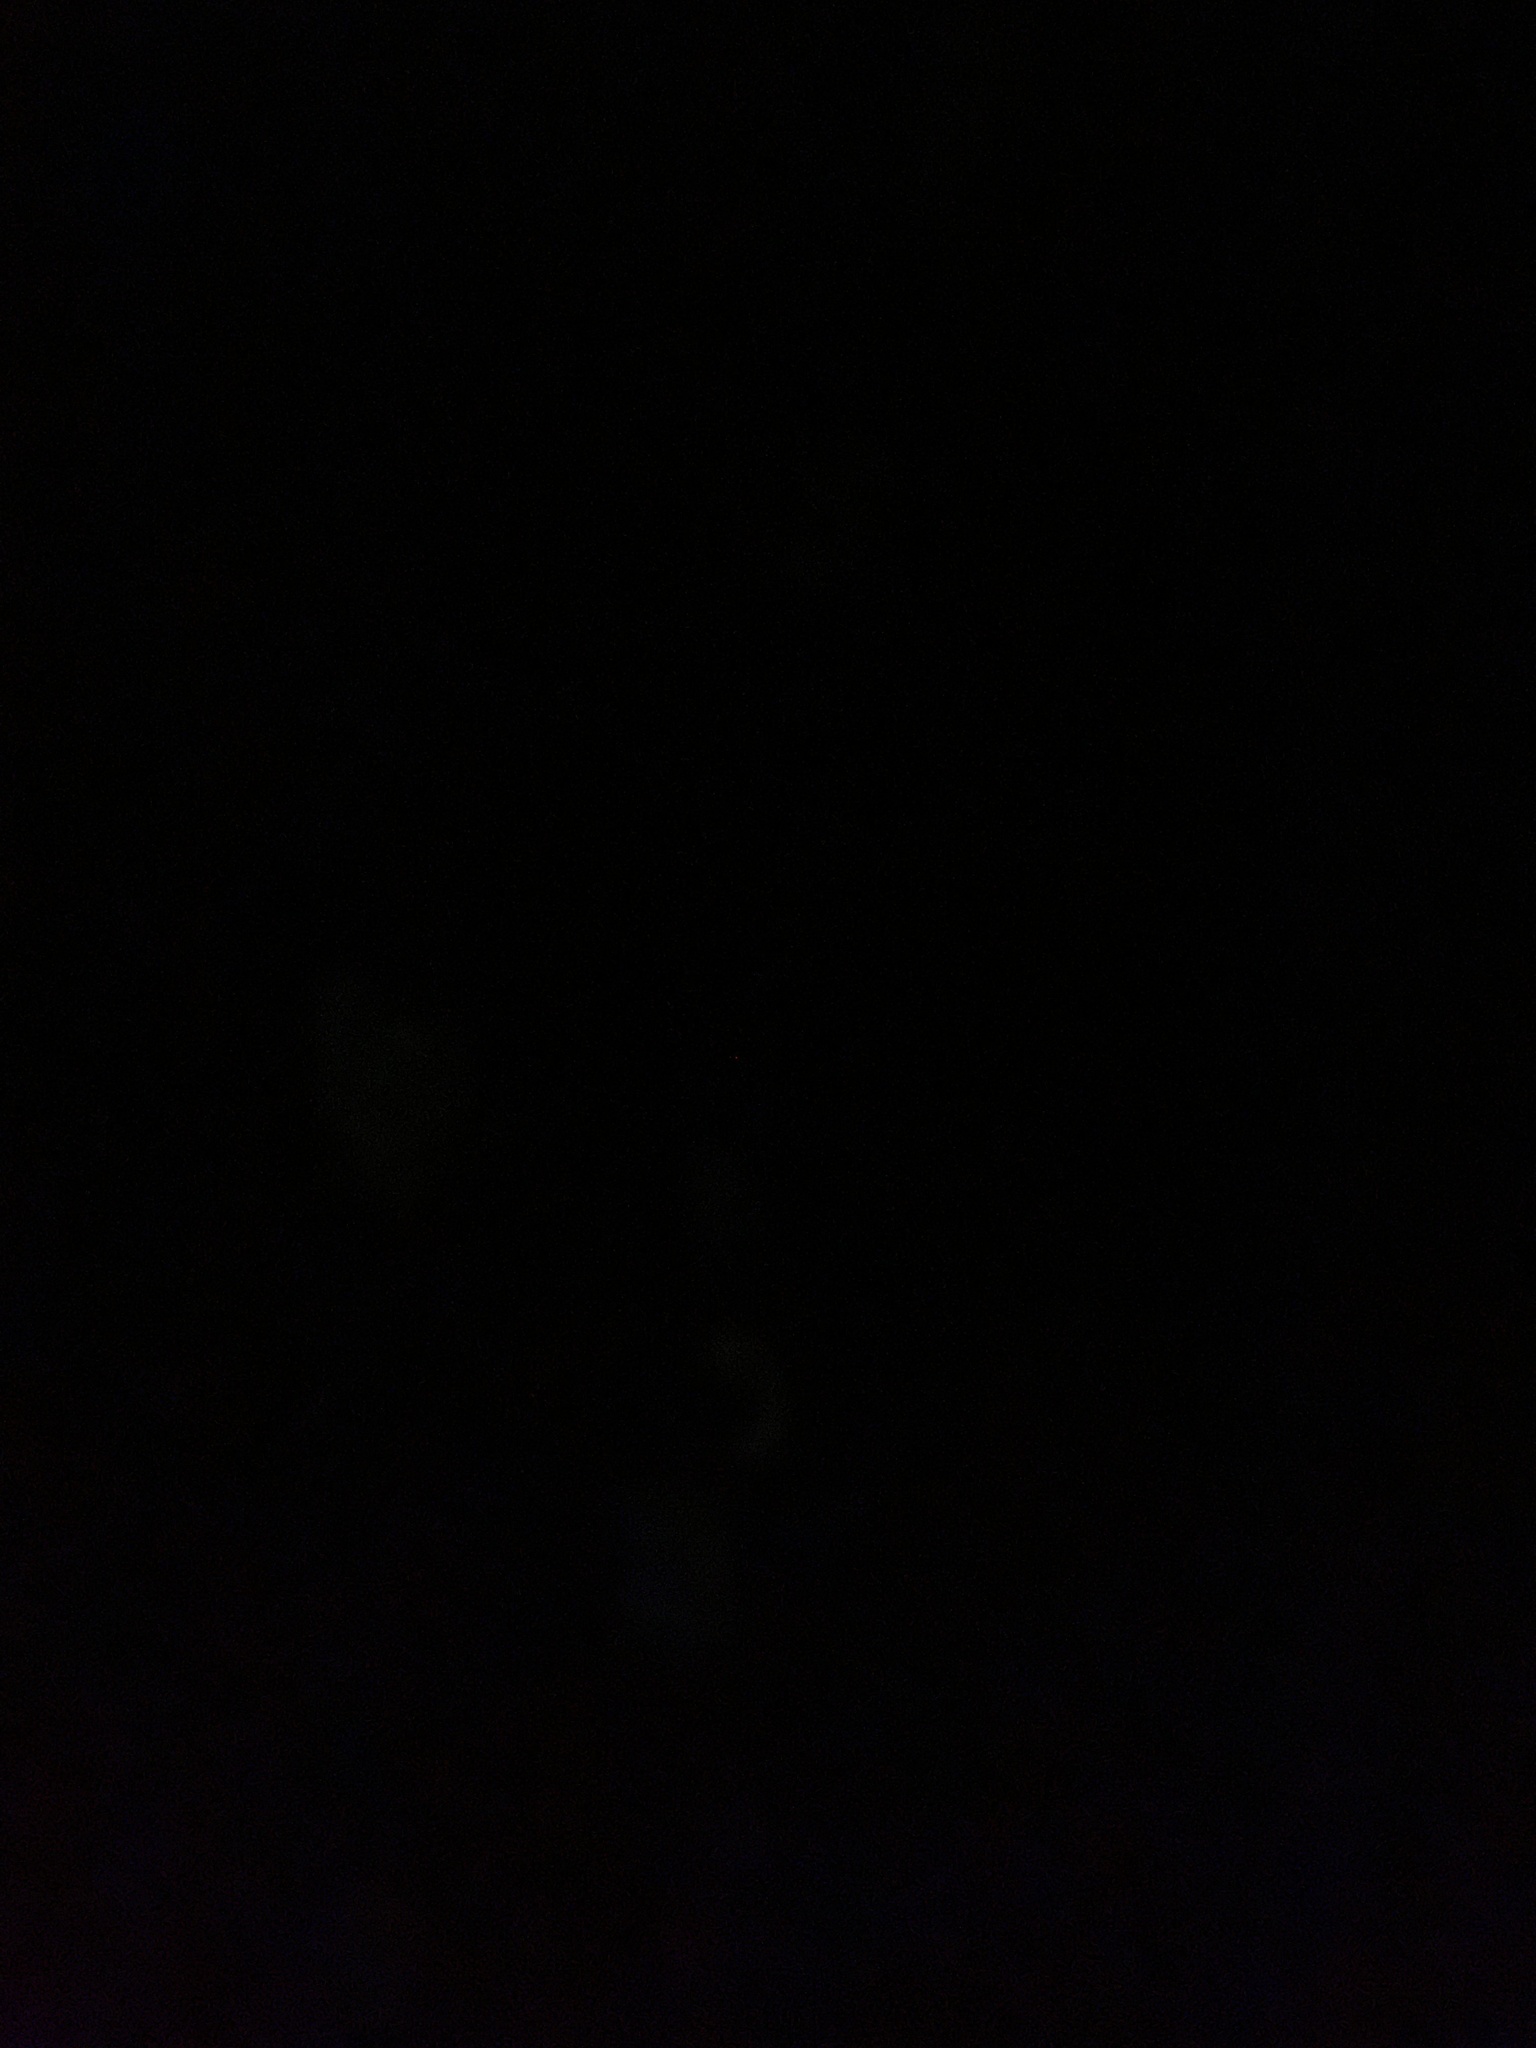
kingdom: Fungi
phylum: Basidiomycota
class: Agaricomycetes
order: Agaricales
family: Mycenaceae
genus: Panellus
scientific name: Panellus stipticus
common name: Bitter oysterling
